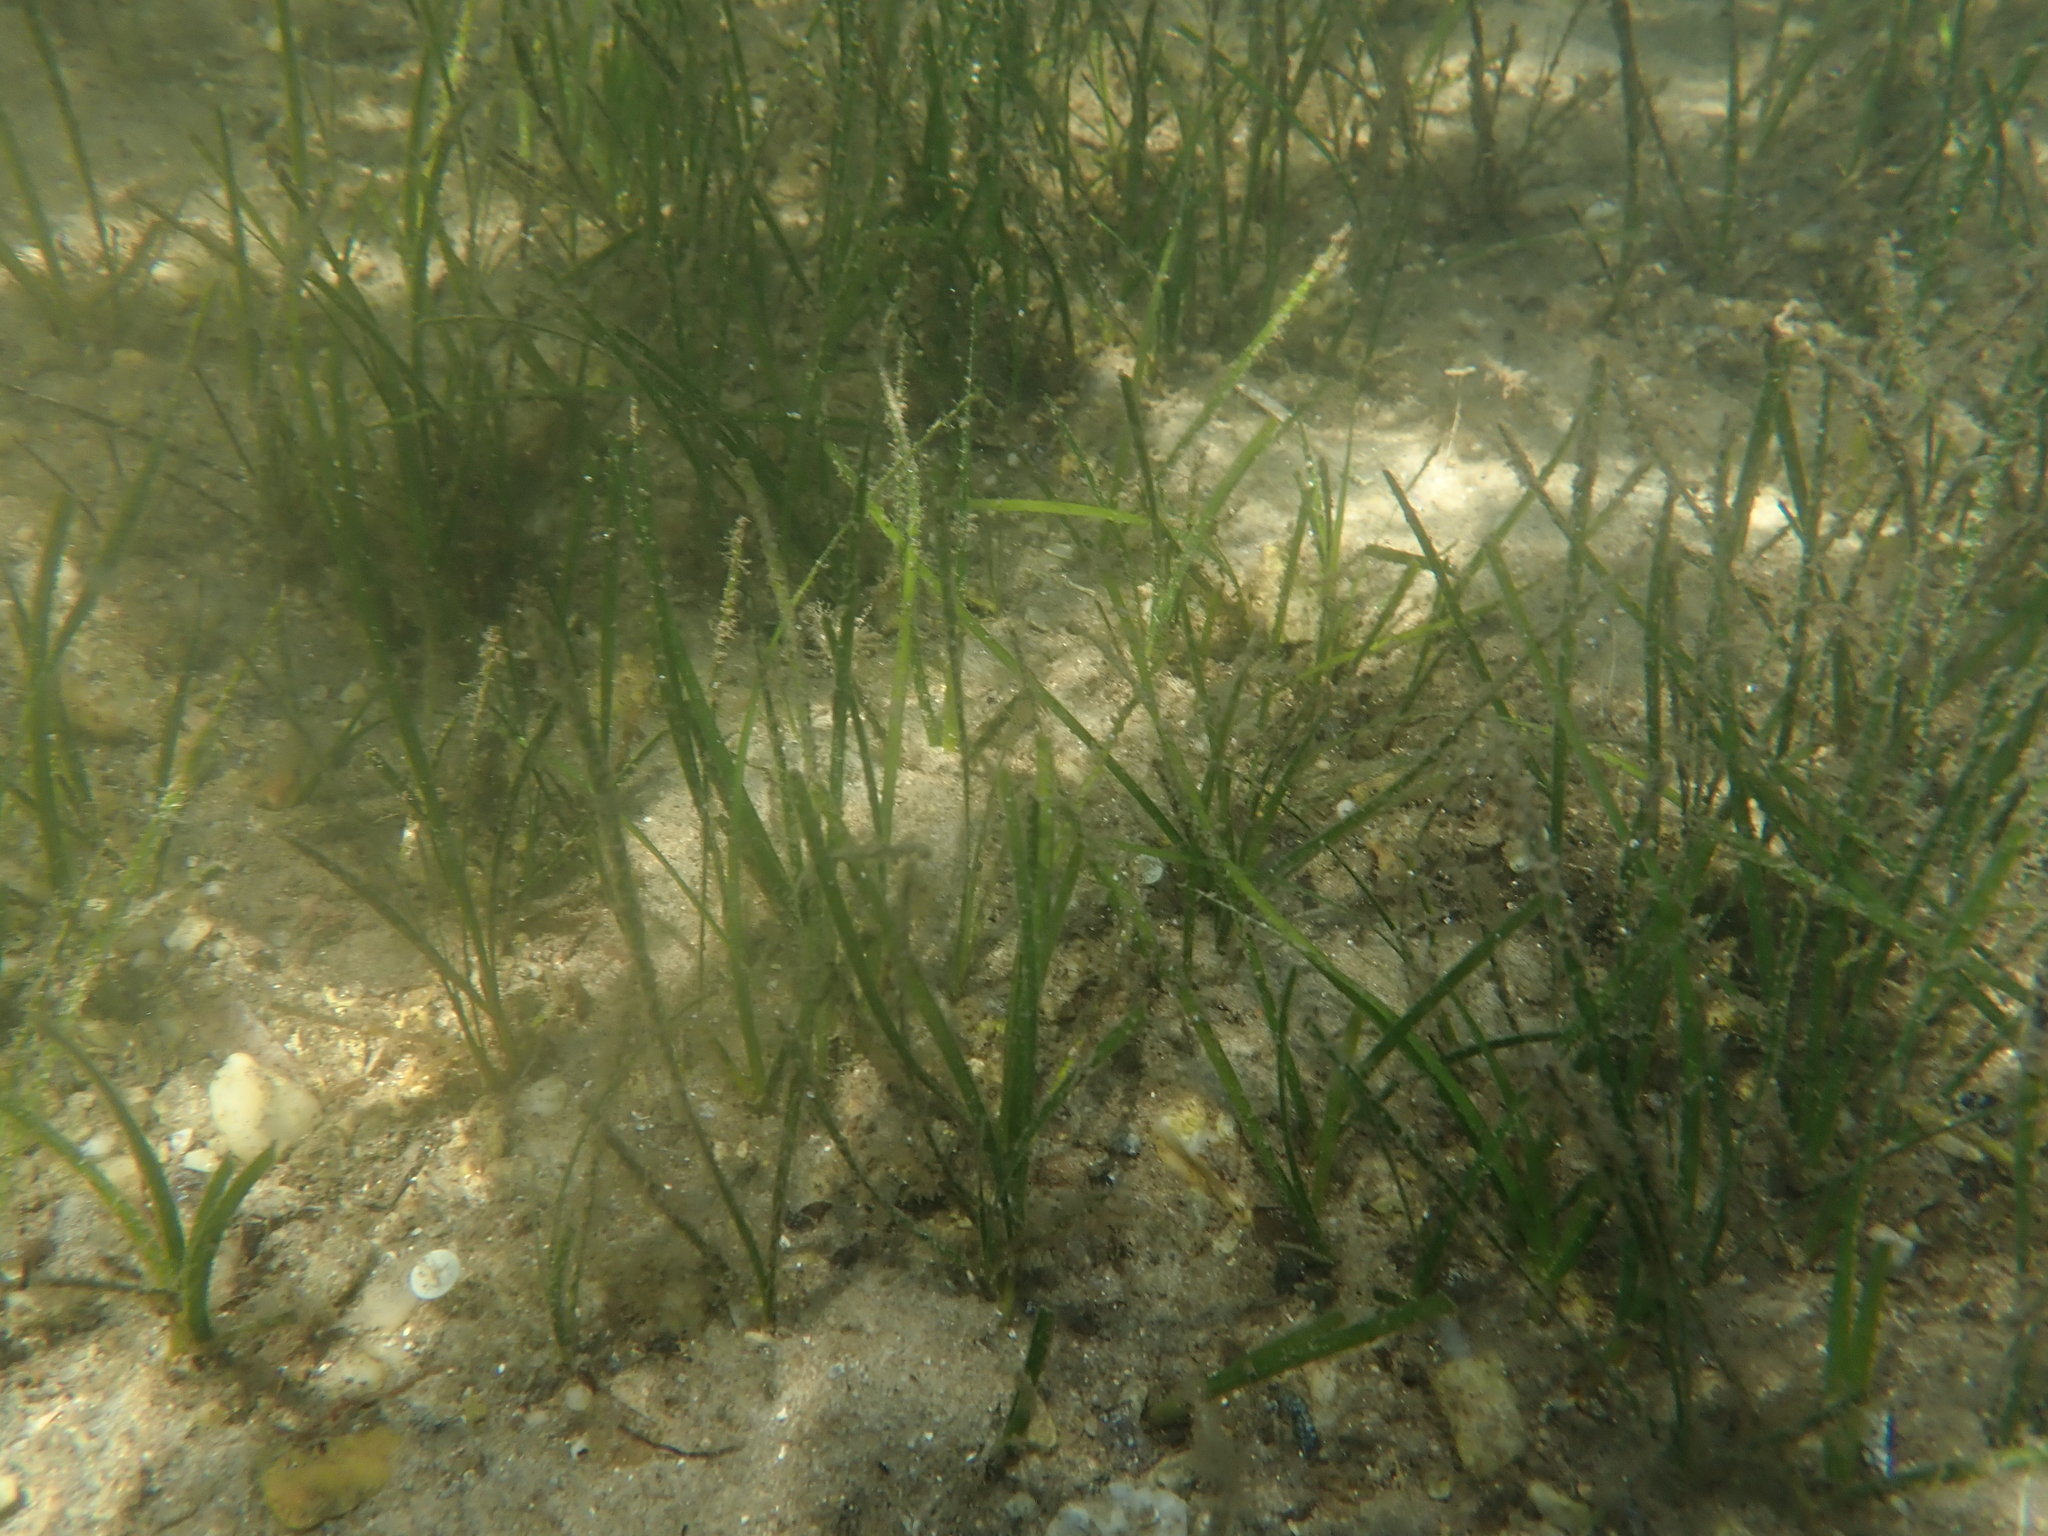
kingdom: Plantae
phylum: Tracheophyta
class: Liliopsida
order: Alismatales
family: Zosteraceae
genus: Zostera
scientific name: Zostera marina
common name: Eelgrass
